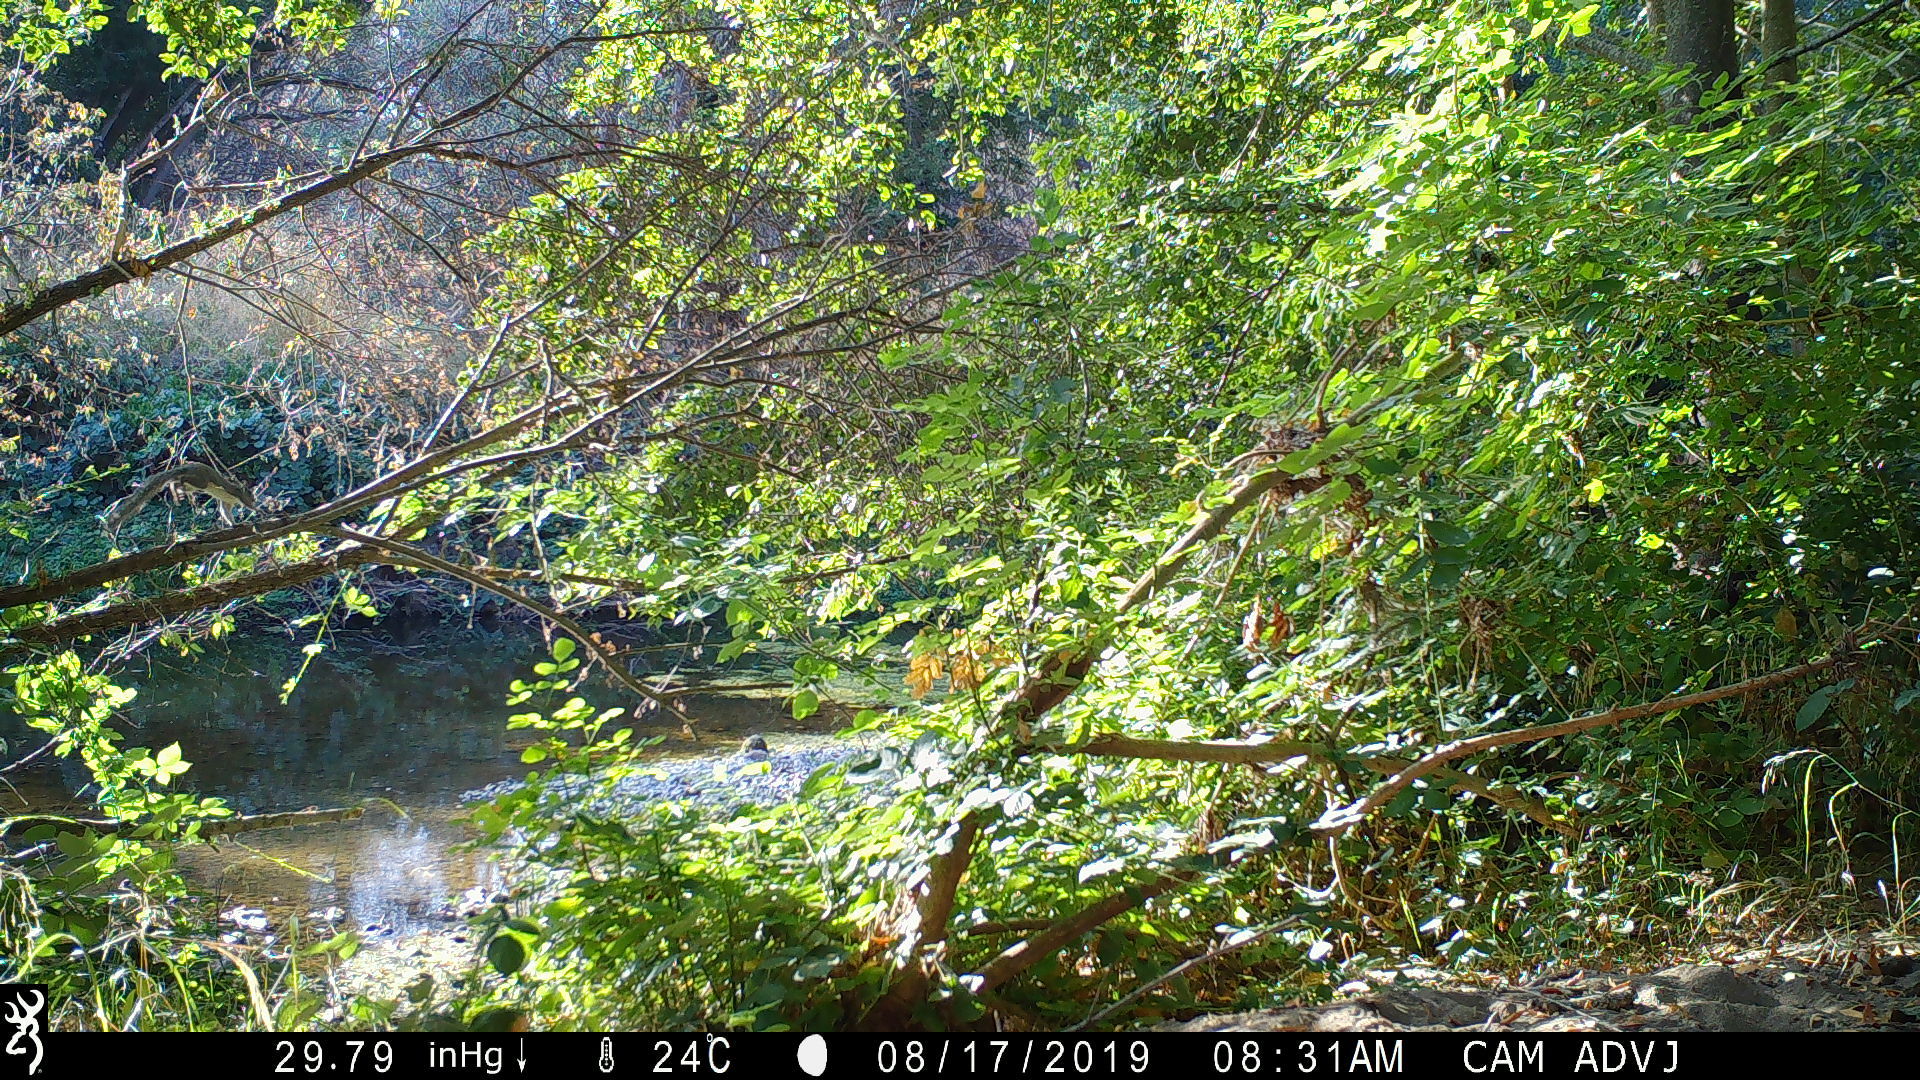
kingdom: Animalia
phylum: Chordata
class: Mammalia
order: Rodentia
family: Sciuridae
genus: Sciurus
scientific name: Sciurus griseus
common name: Western gray squirrel
